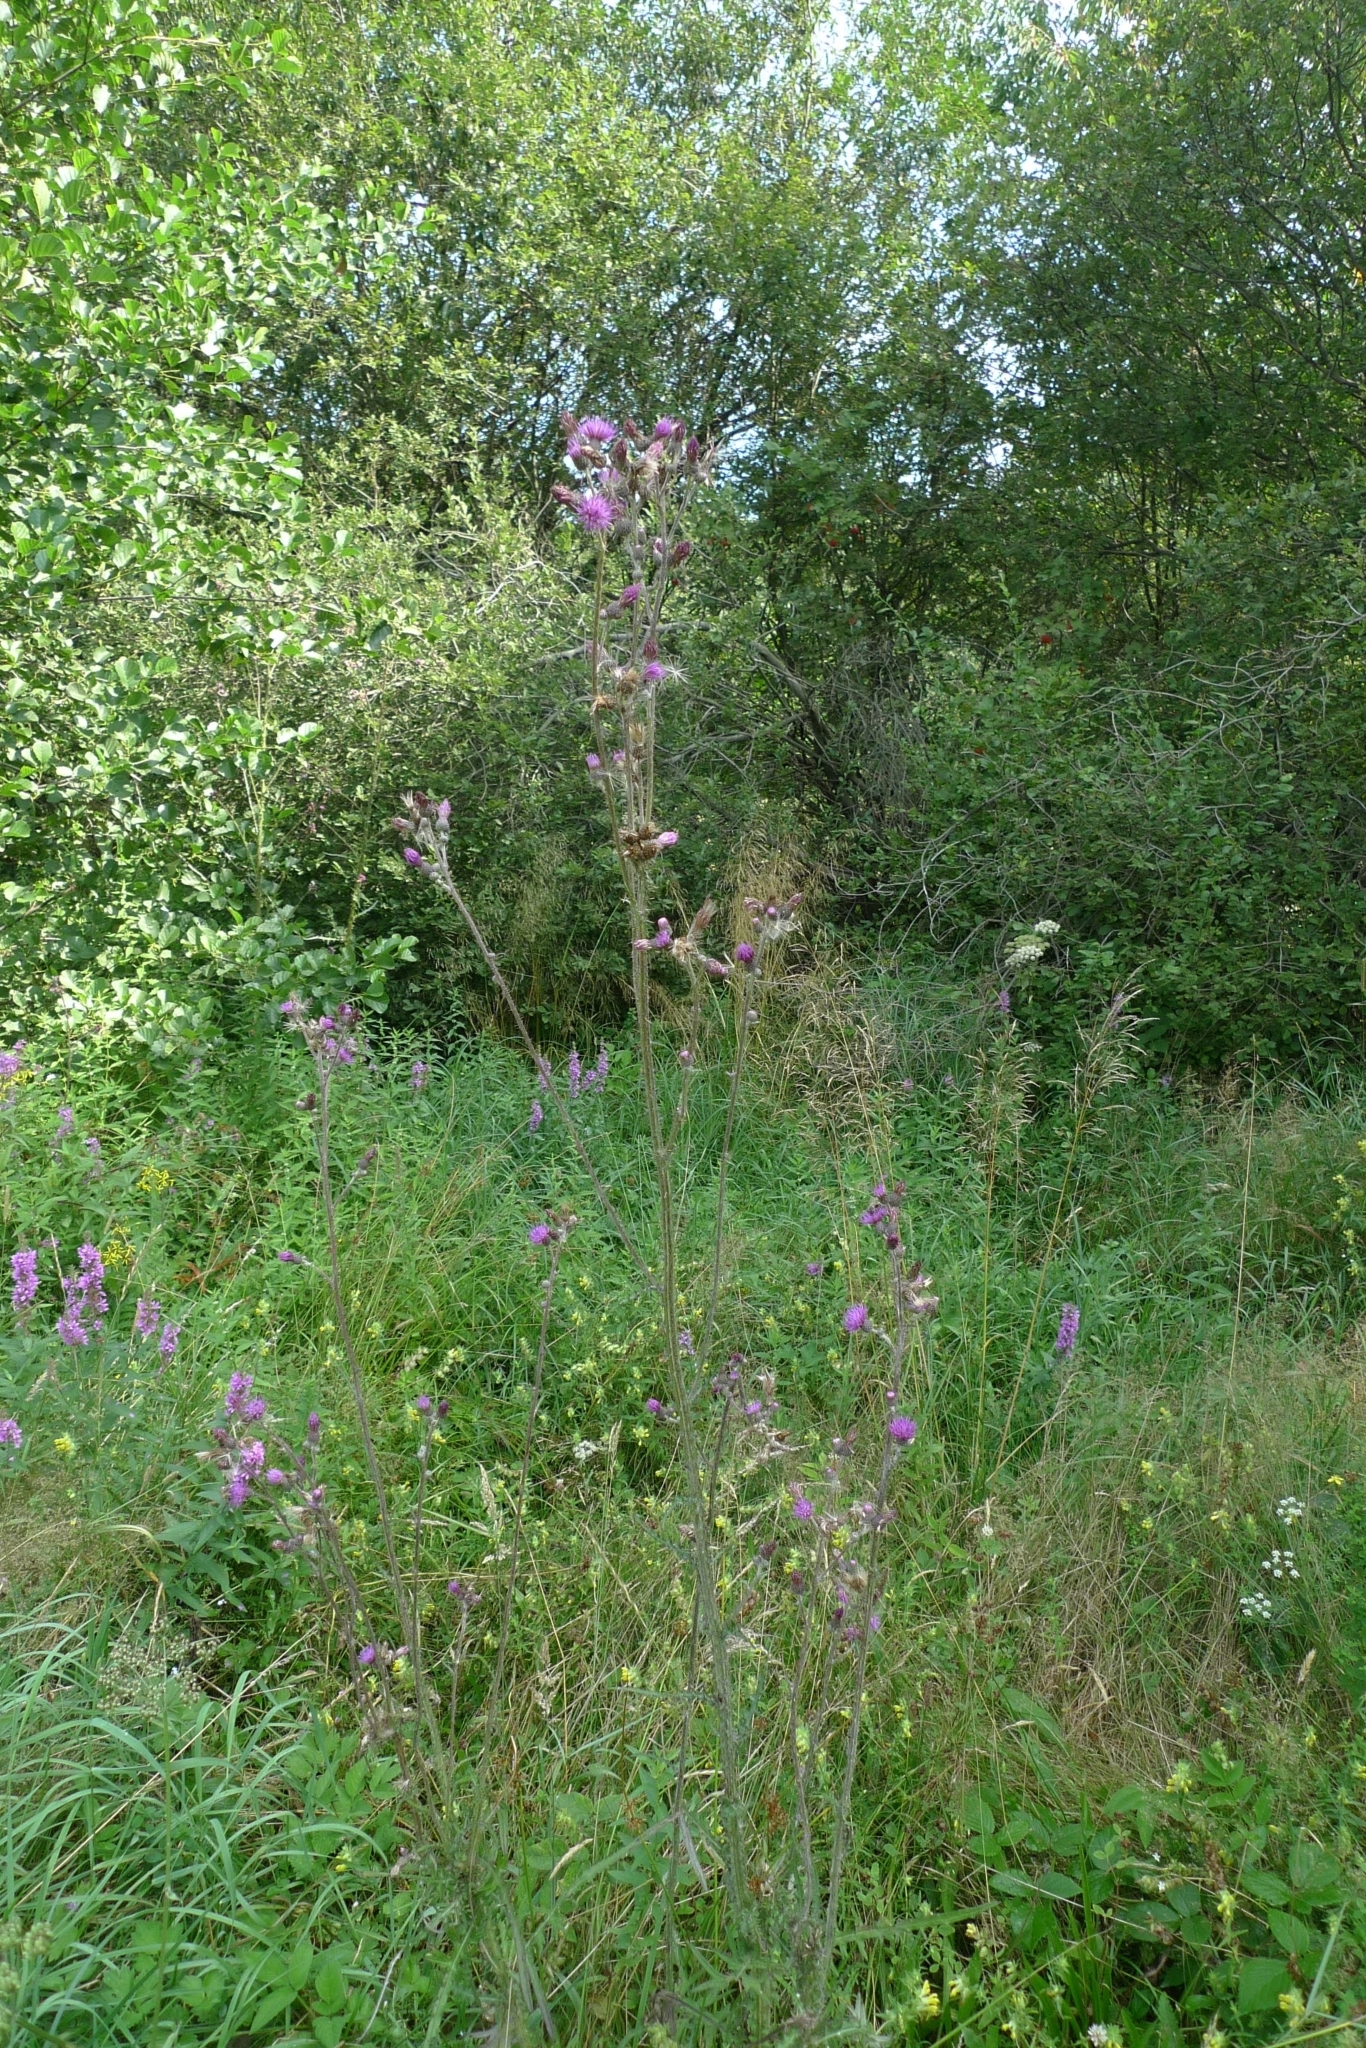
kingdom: Plantae
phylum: Tracheophyta
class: Magnoliopsida
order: Asterales
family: Asteraceae
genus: Cirsium
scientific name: Cirsium palustre
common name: Marsh thistle
